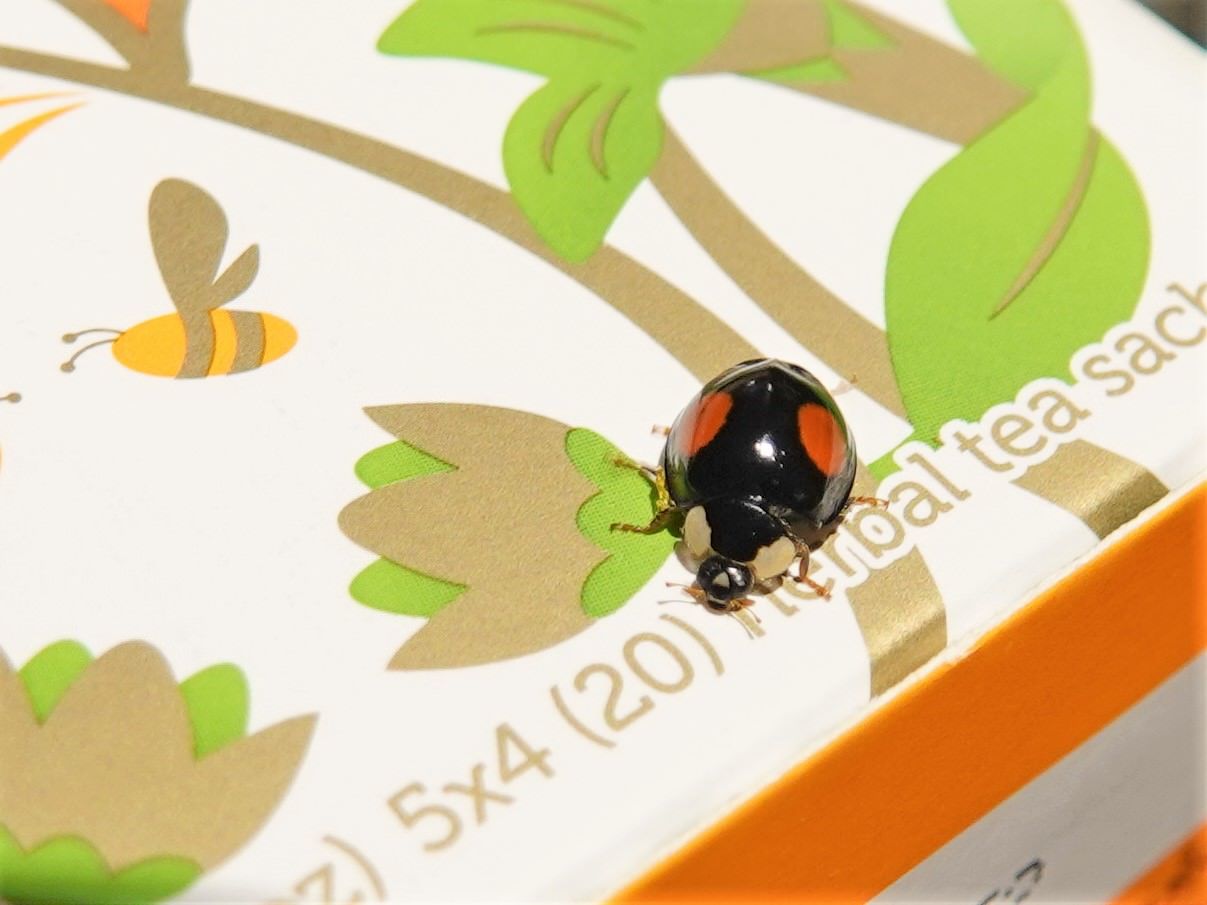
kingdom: Animalia
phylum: Arthropoda
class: Insecta
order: Coleoptera
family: Coccinellidae
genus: Harmonia
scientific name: Harmonia axyridis
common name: Harlequin ladybird
